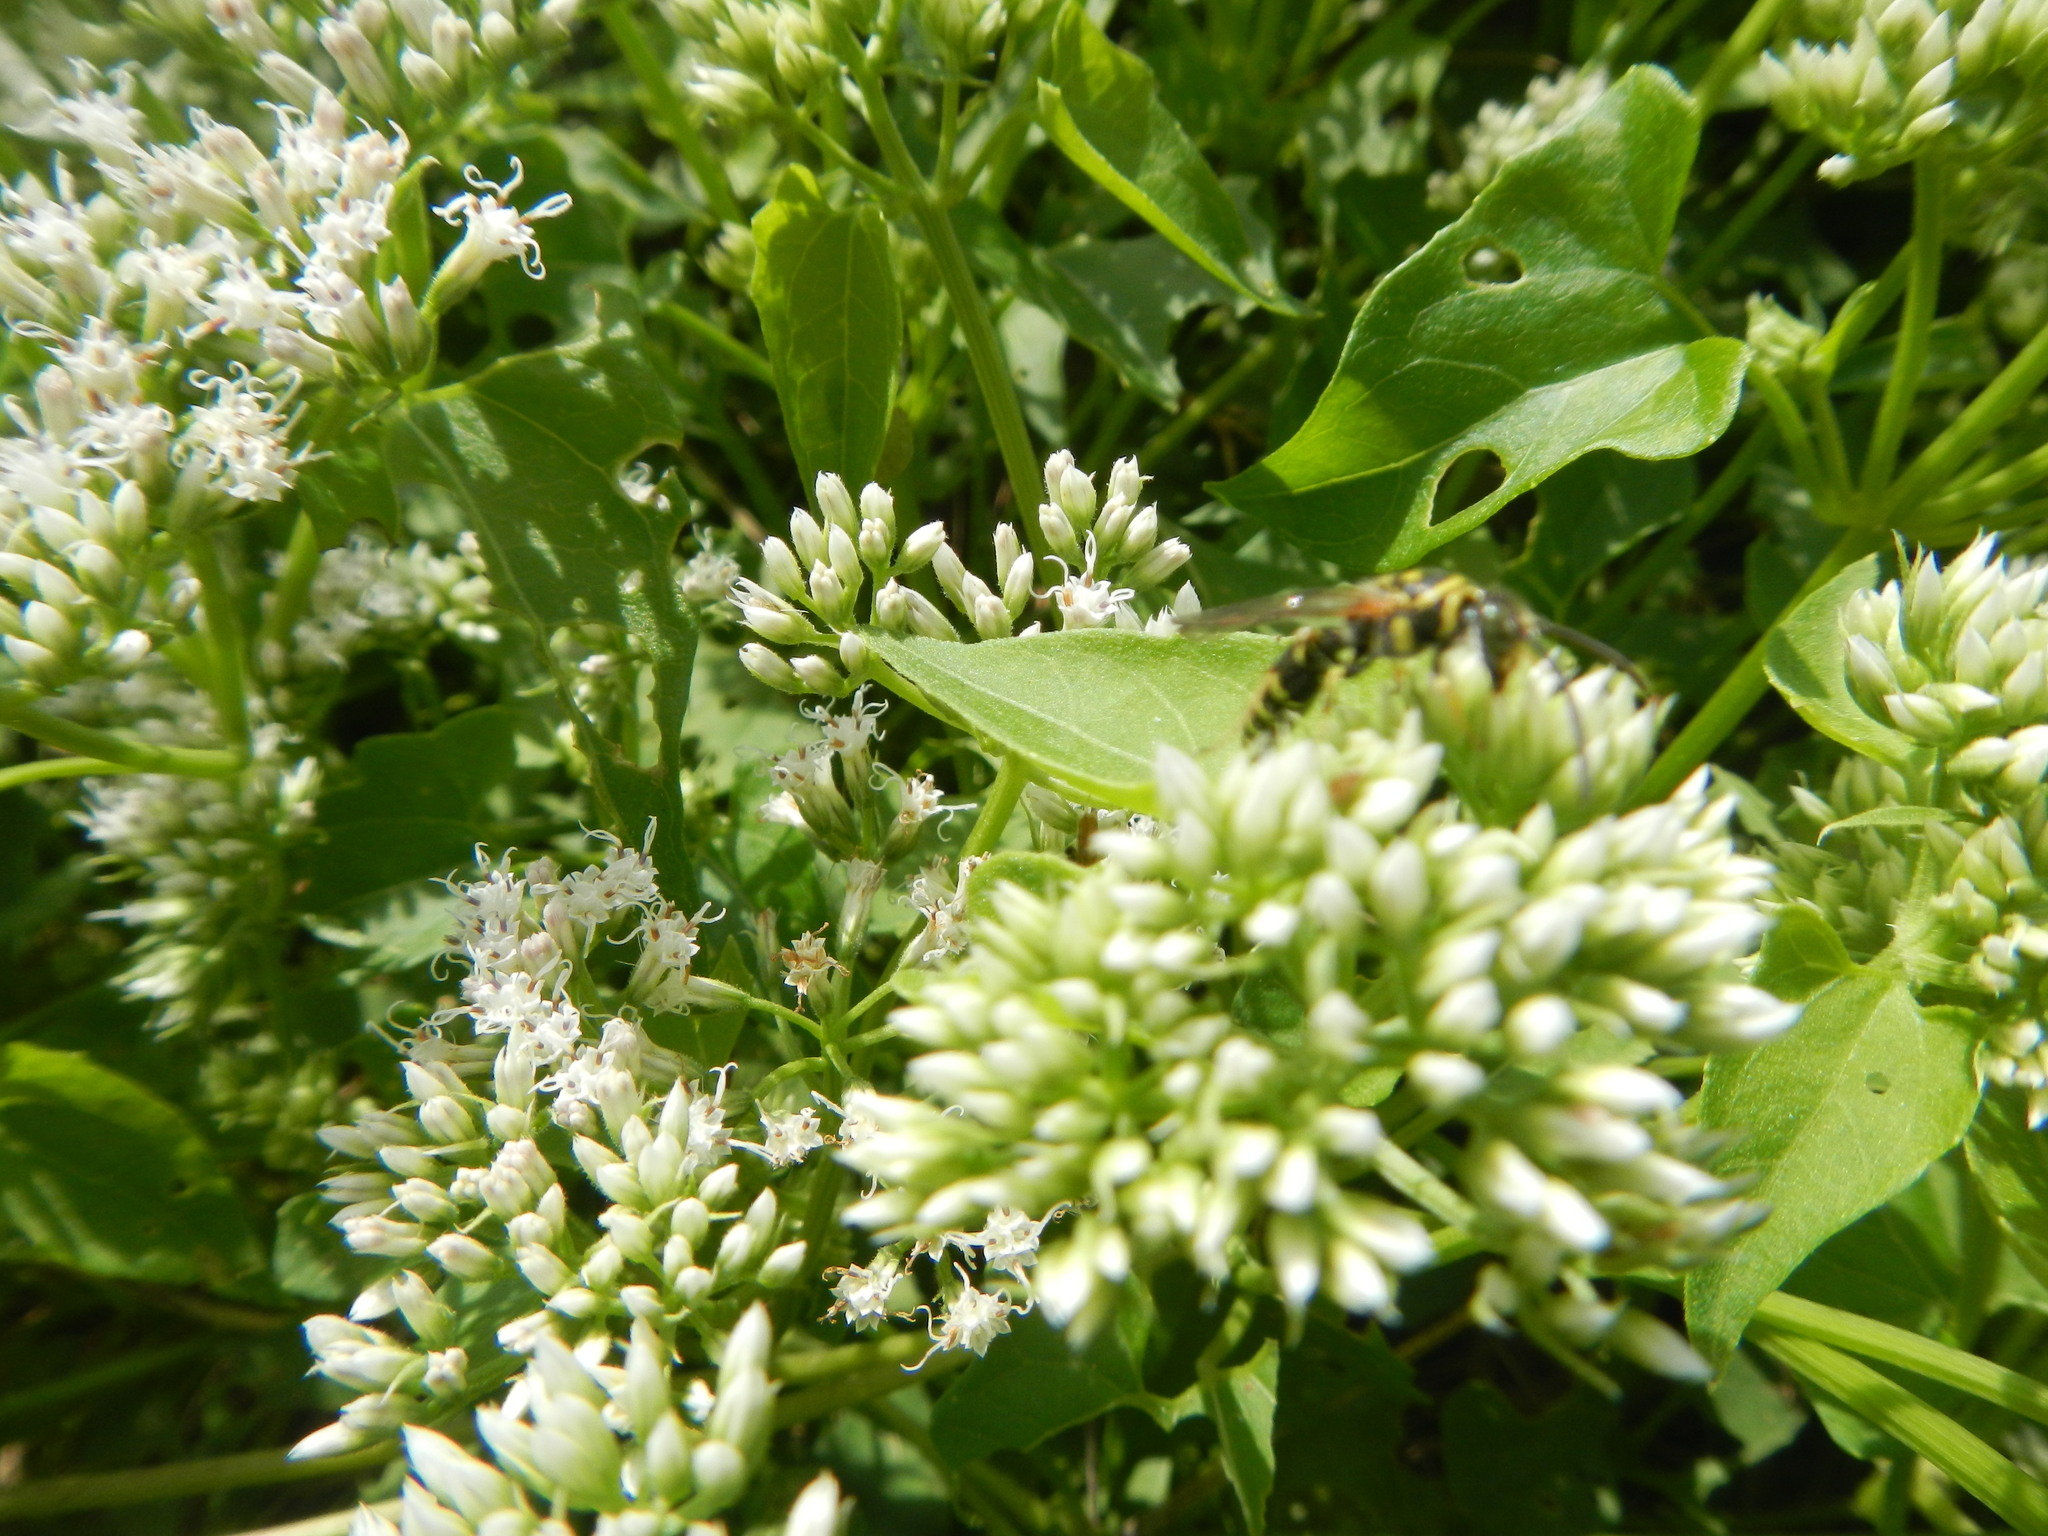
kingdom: Plantae
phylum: Tracheophyta
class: Magnoliopsida
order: Asterales
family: Asteraceae
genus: Mikania
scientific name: Mikania scandens
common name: Climbing hempvine
